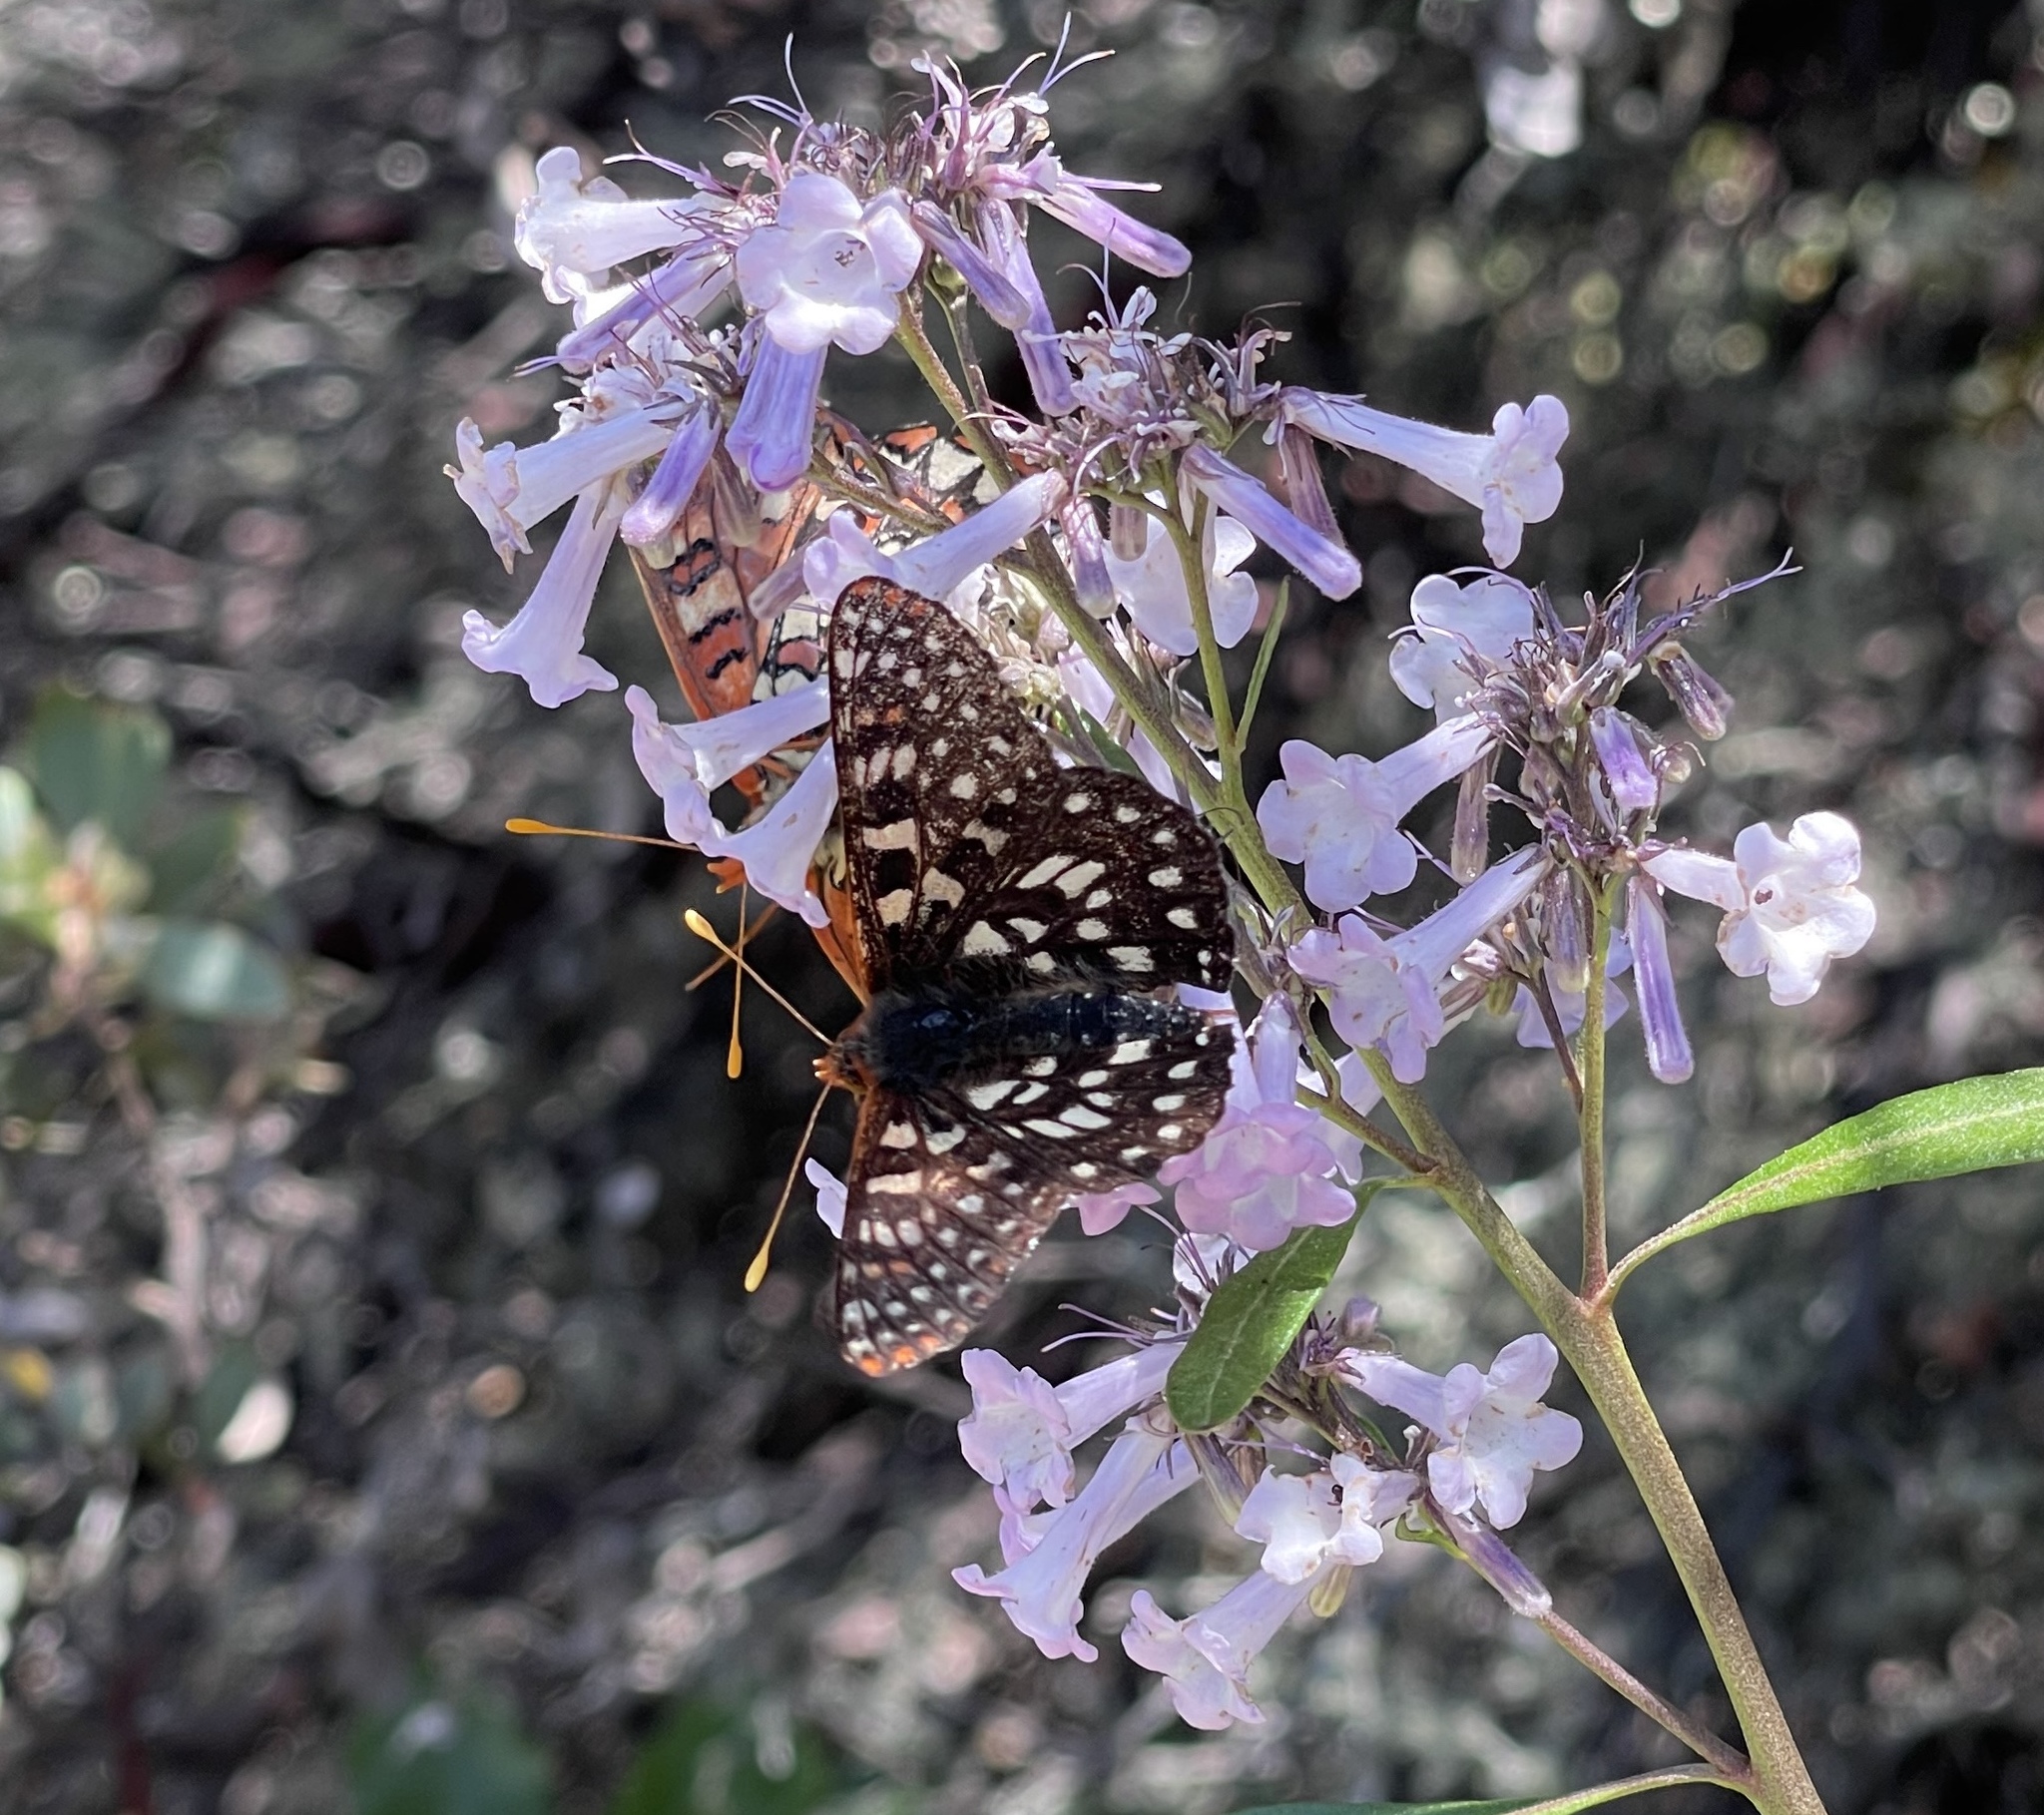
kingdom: Animalia
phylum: Arthropoda
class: Insecta
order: Lepidoptera
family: Nymphalidae
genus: Occidryas
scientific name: Occidryas chalcedona
